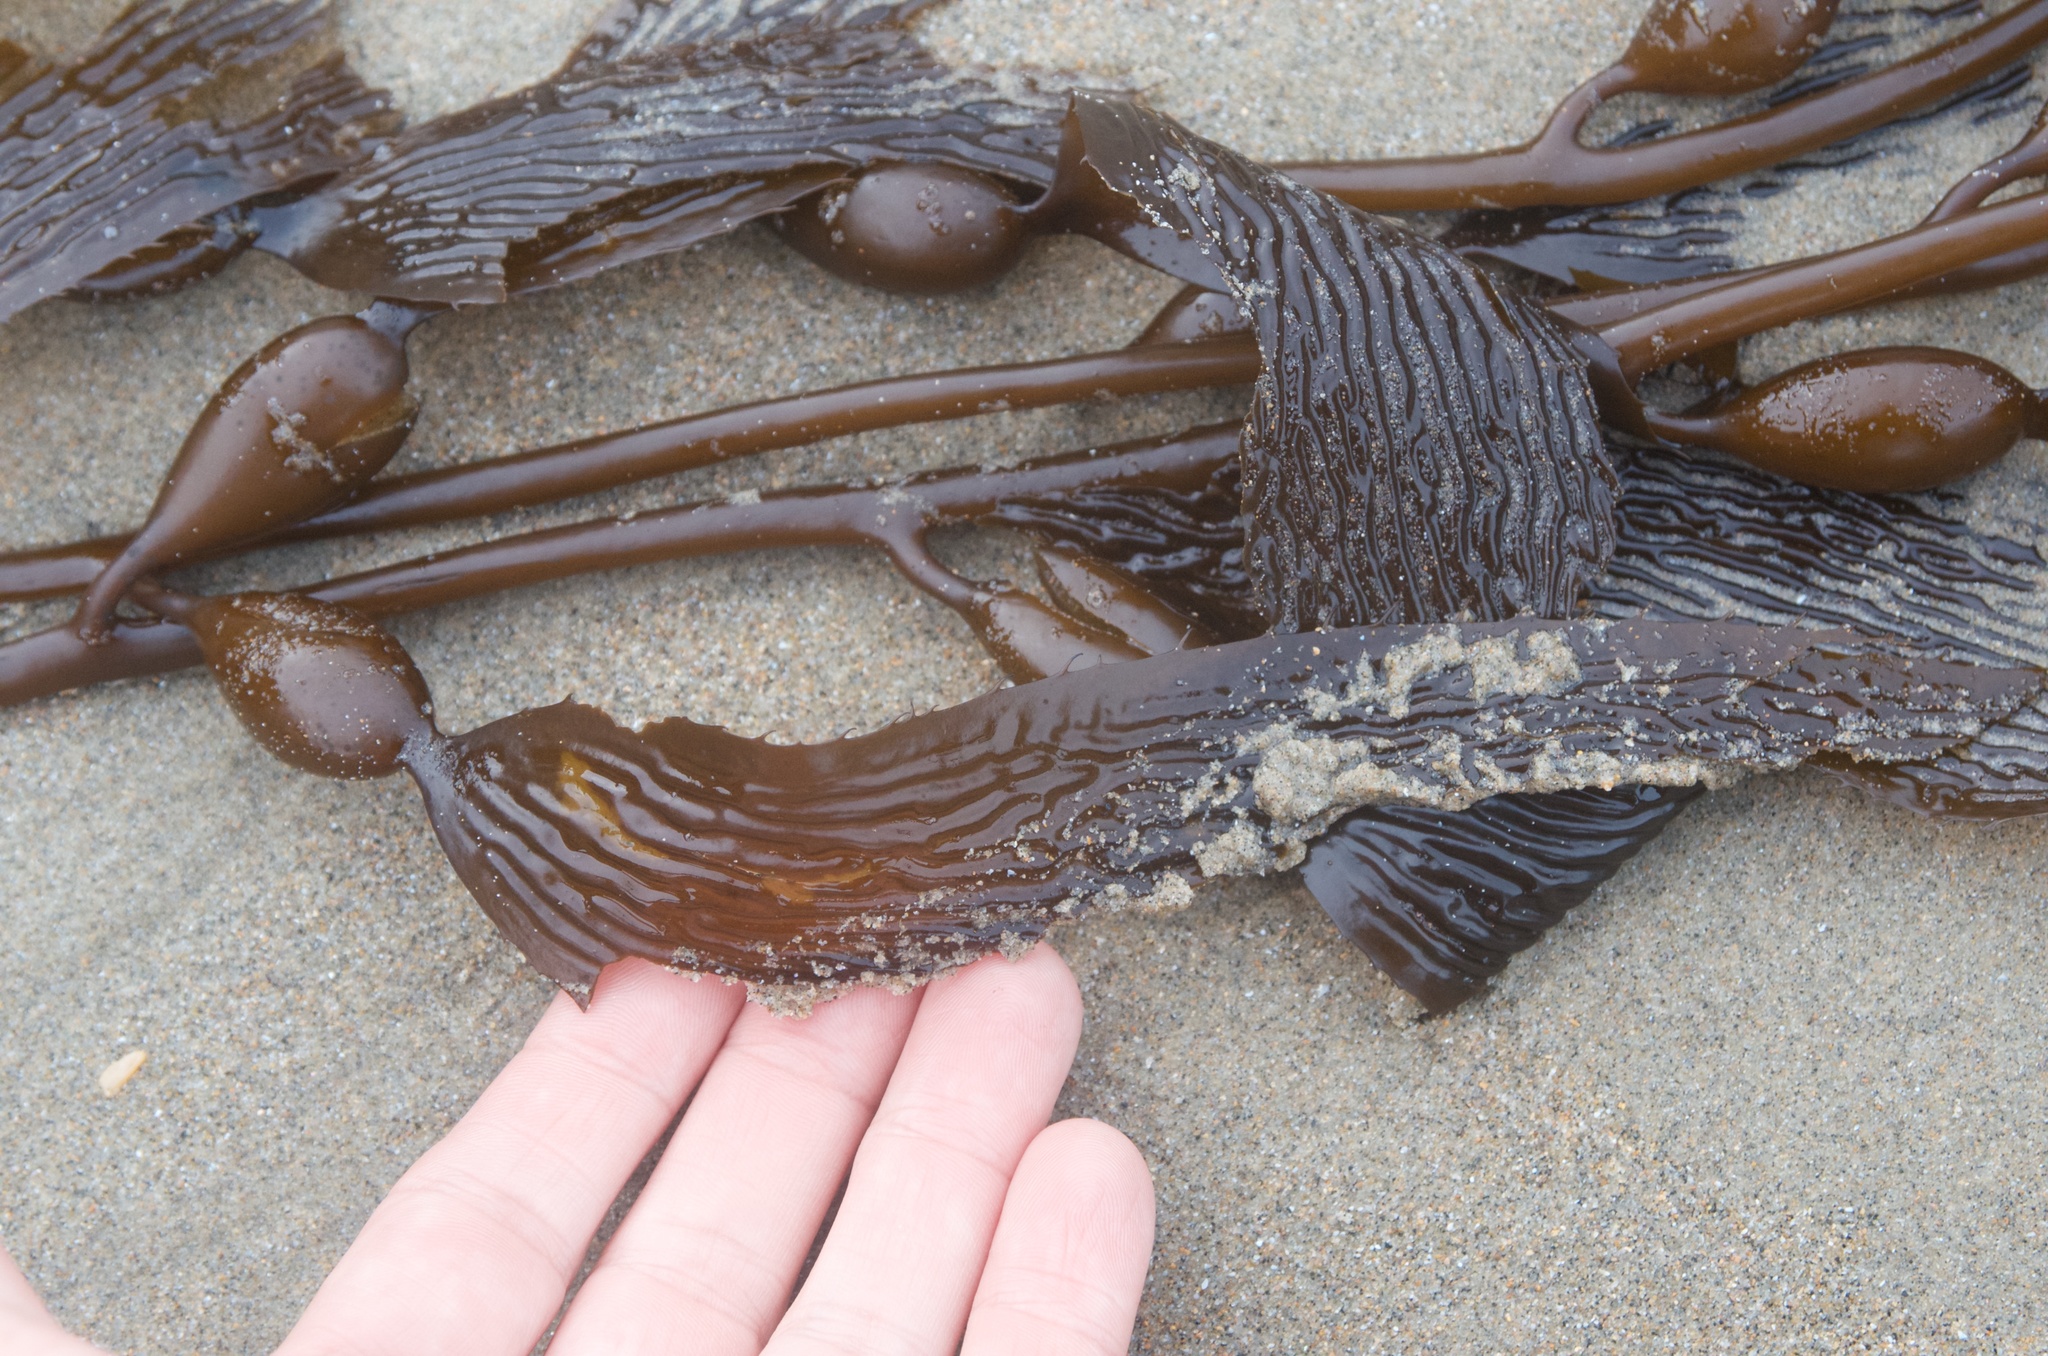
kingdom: Chromista
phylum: Ochrophyta
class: Phaeophyceae
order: Laminariales
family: Laminariaceae
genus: Macrocystis
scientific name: Macrocystis pyrifera
